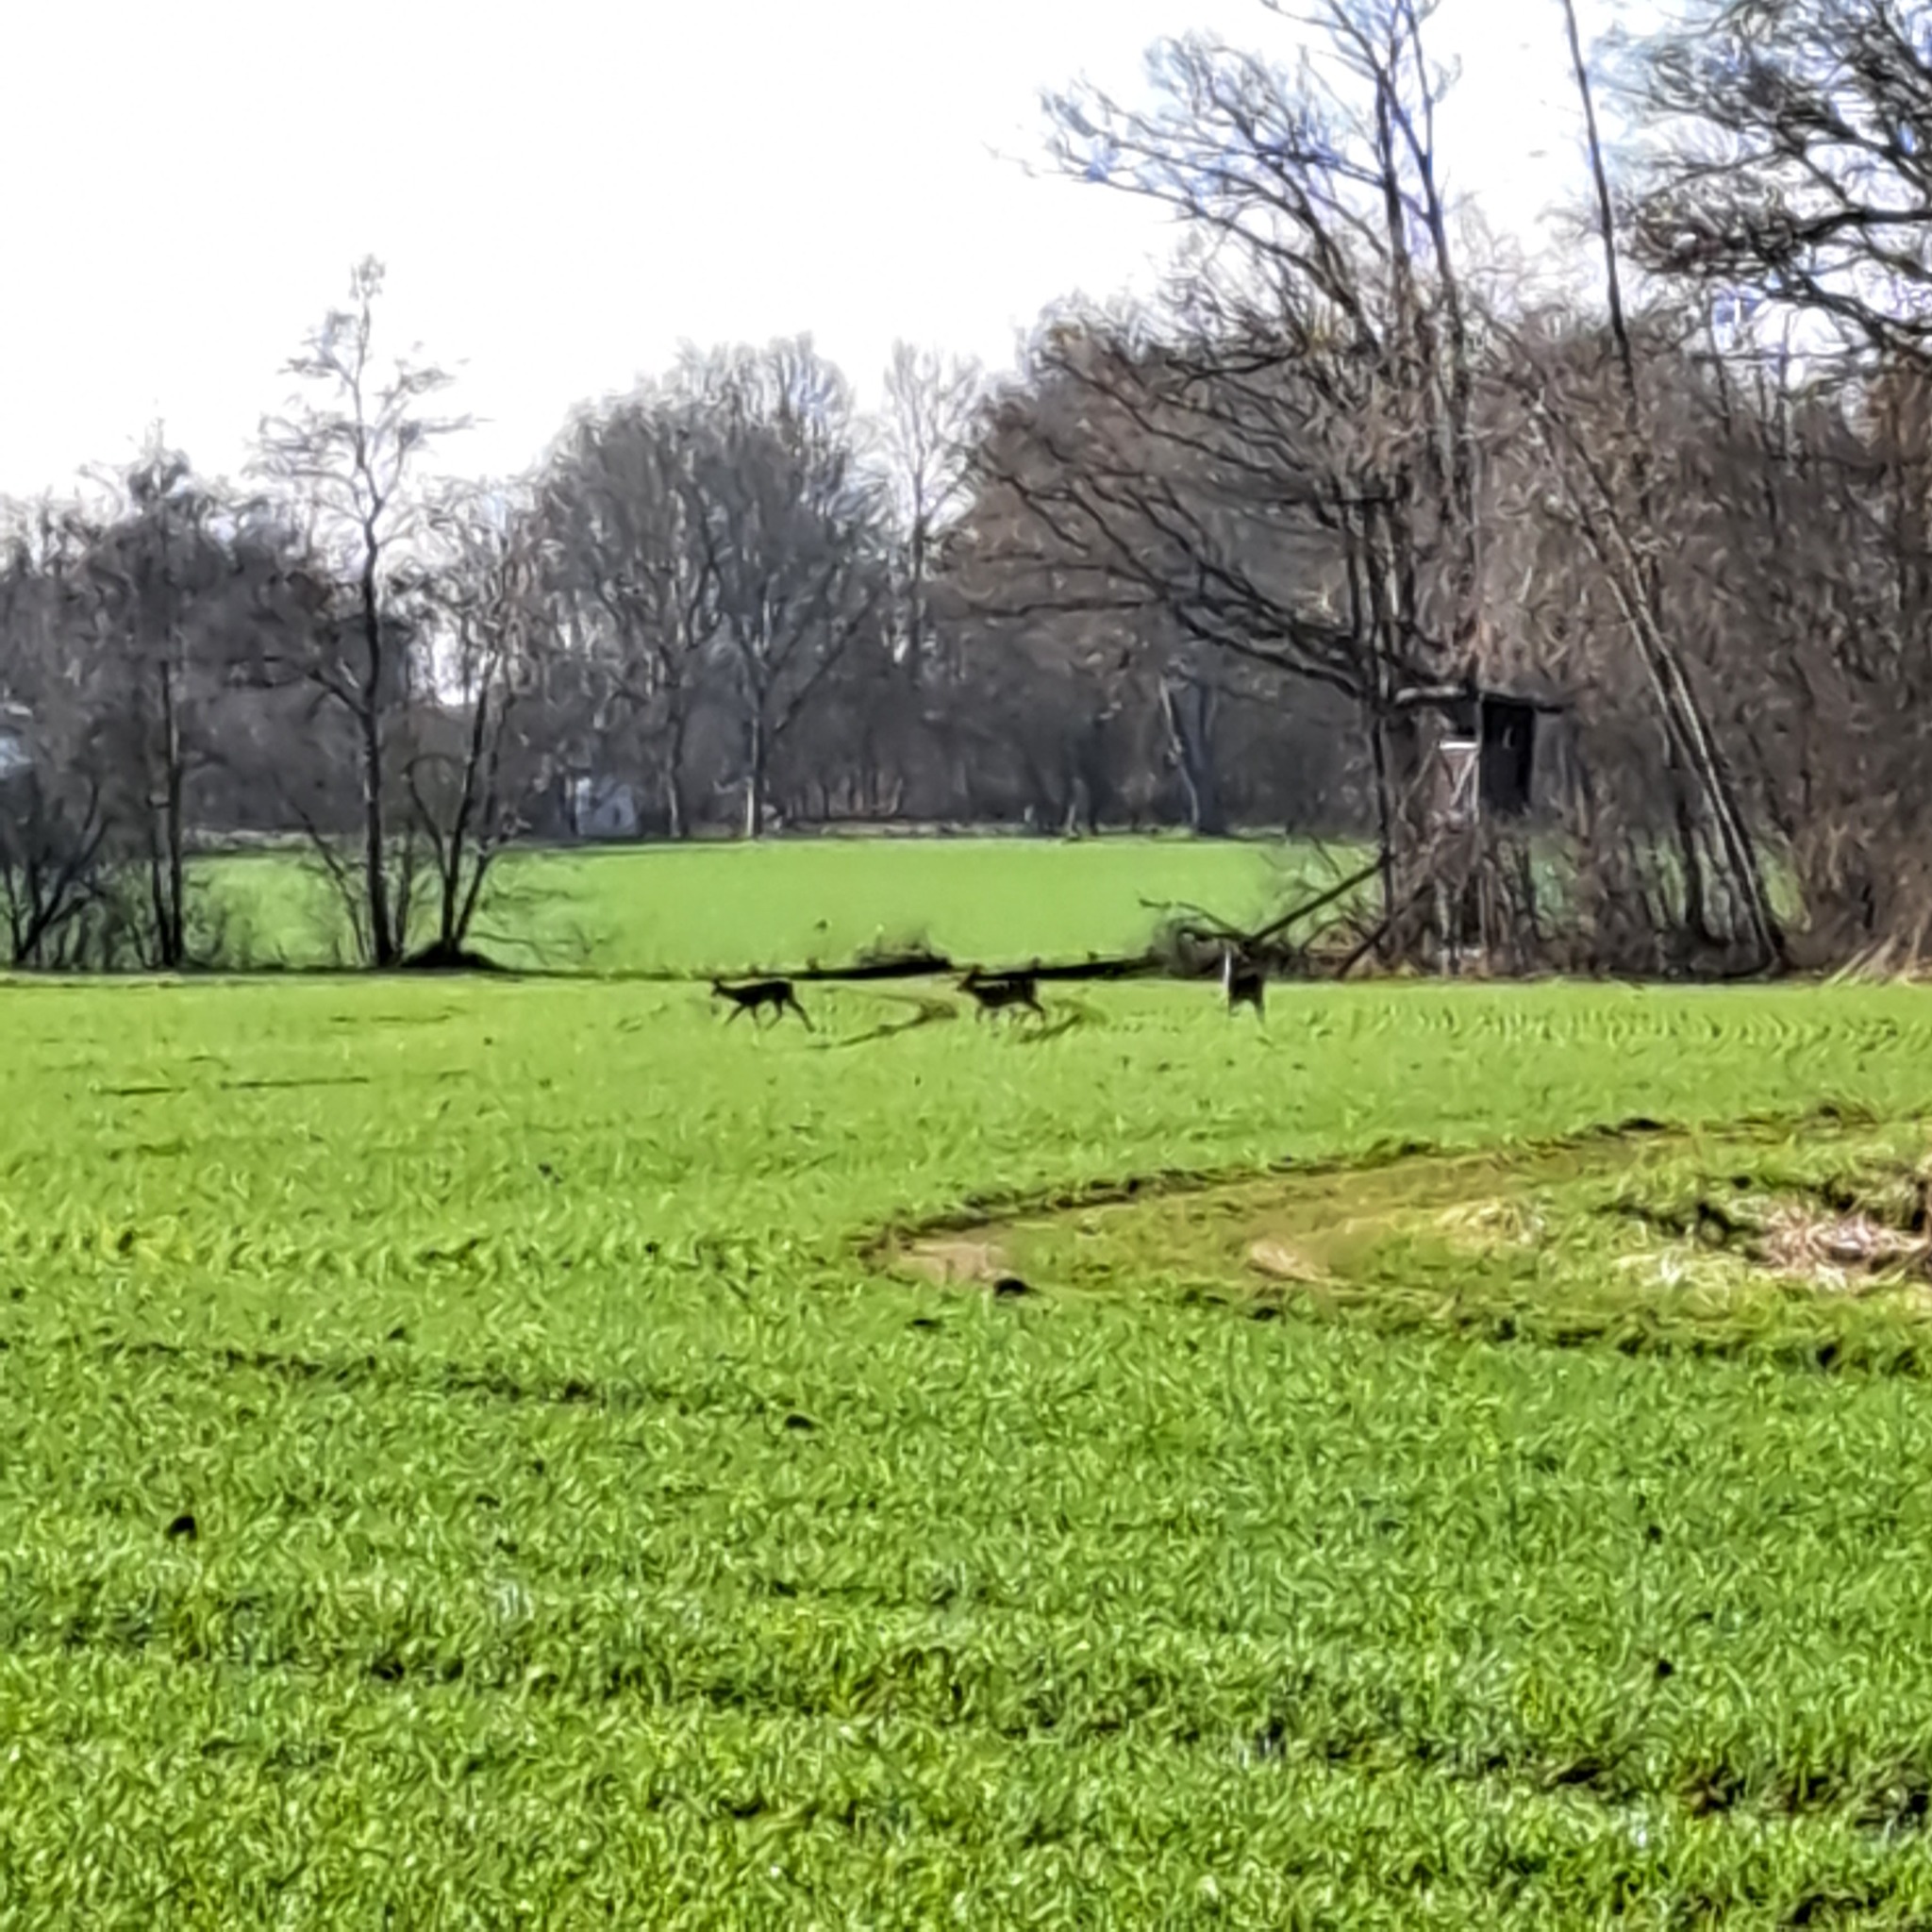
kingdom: Animalia
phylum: Chordata
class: Mammalia
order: Artiodactyla
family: Cervidae
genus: Capreolus
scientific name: Capreolus capreolus
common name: Western roe deer
